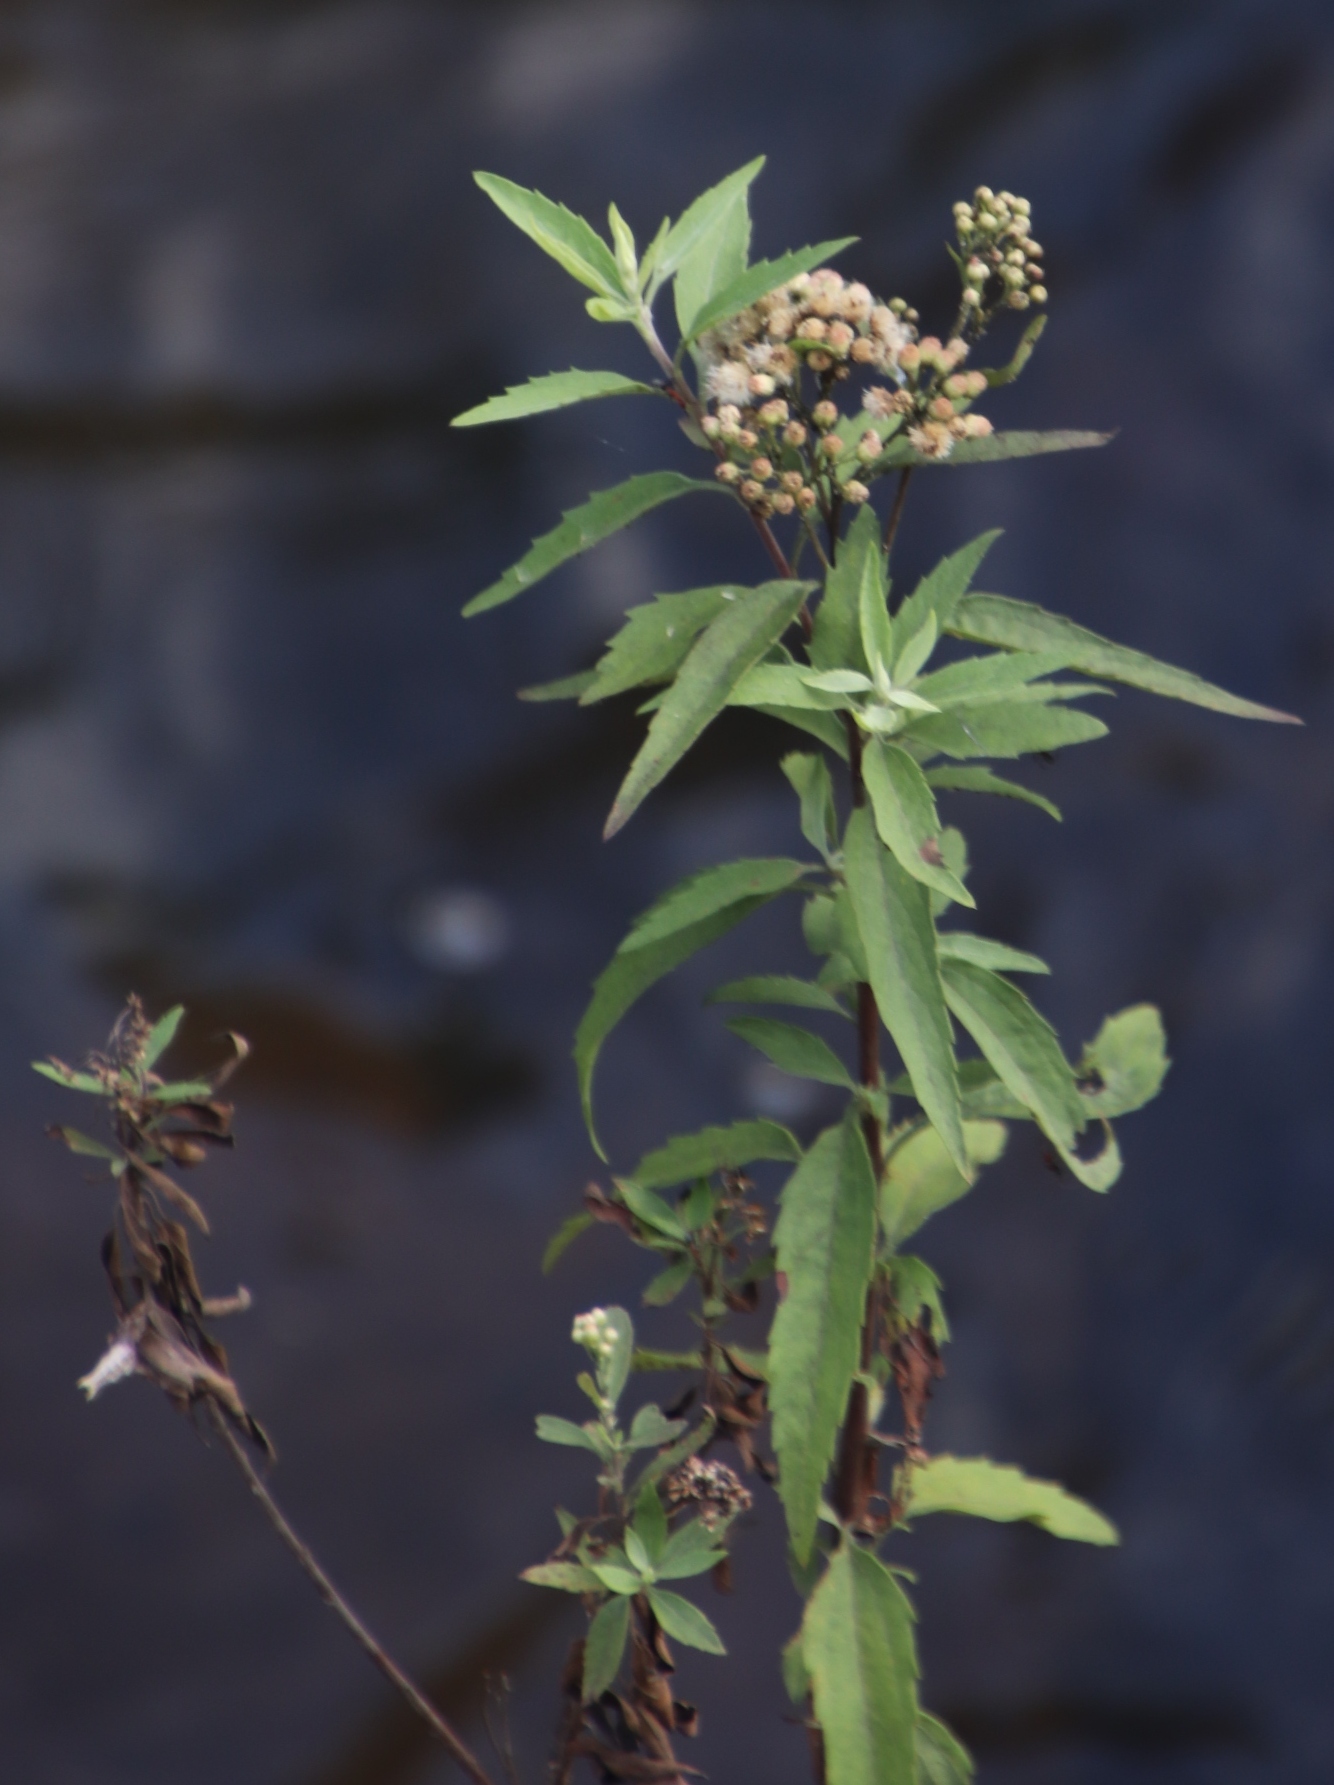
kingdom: Plantae
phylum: Tracheophyta
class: Magnoliopsida
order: Asterales
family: Asteraceae
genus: Nidorella
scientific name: Nidorella ivifolia
